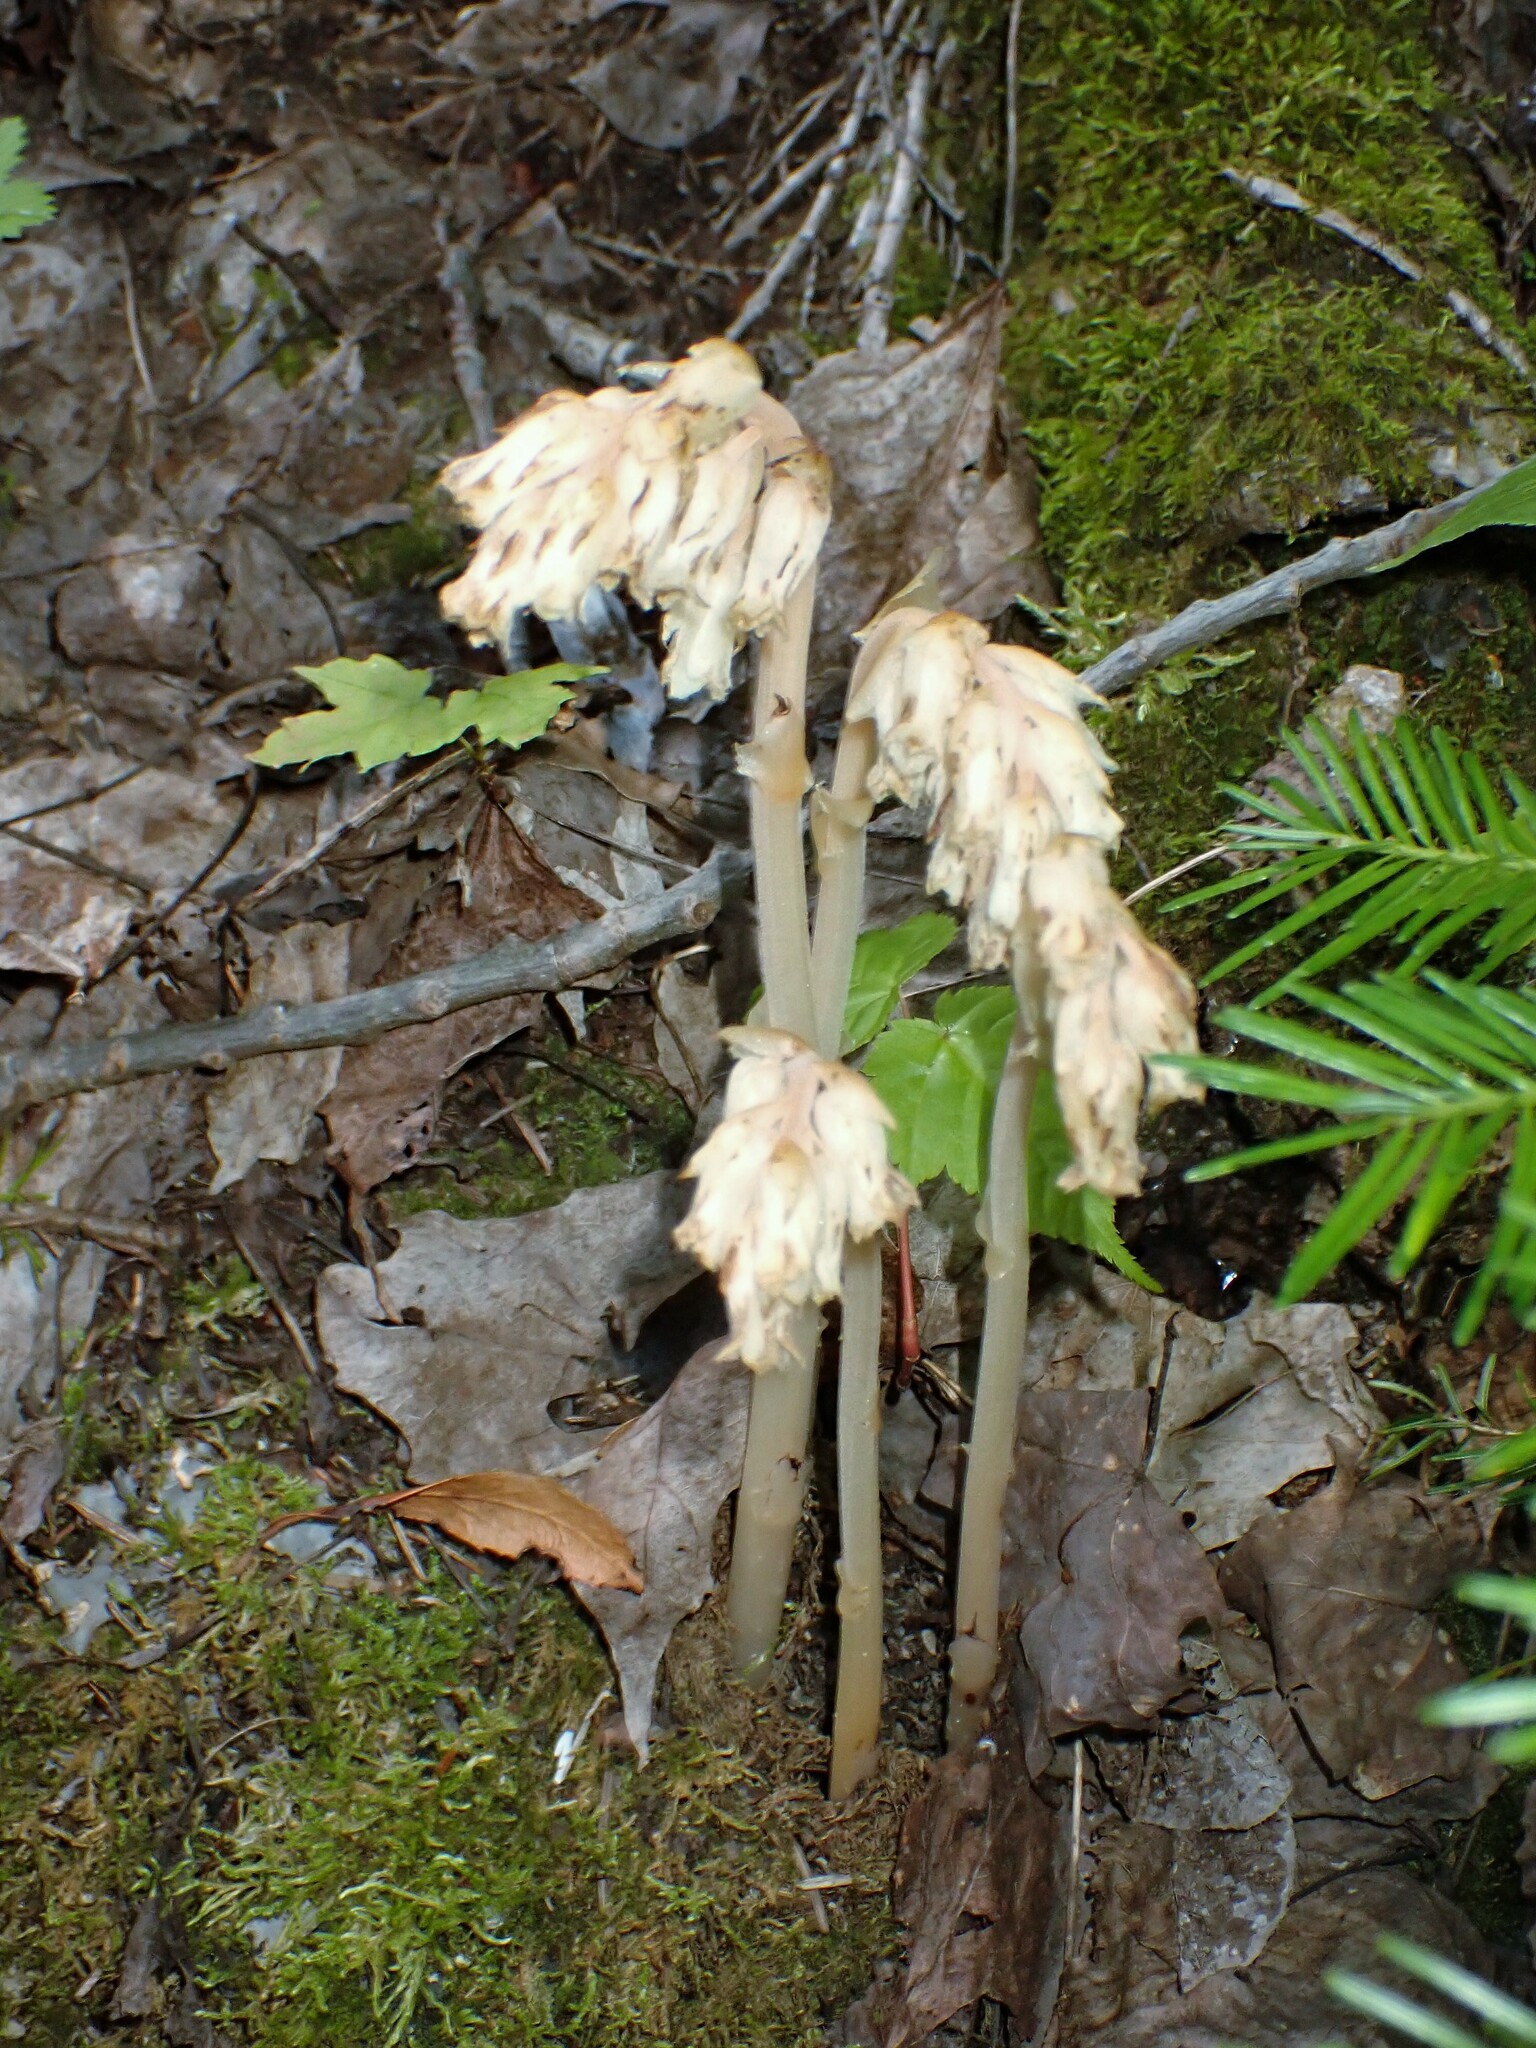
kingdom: Plantae
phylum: Tracheophyta
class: Magnoliopsida
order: Ericales
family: Ericaceae
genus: Hypopitys
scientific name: Hypopitys monotropa
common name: Yellow bird's-nest
